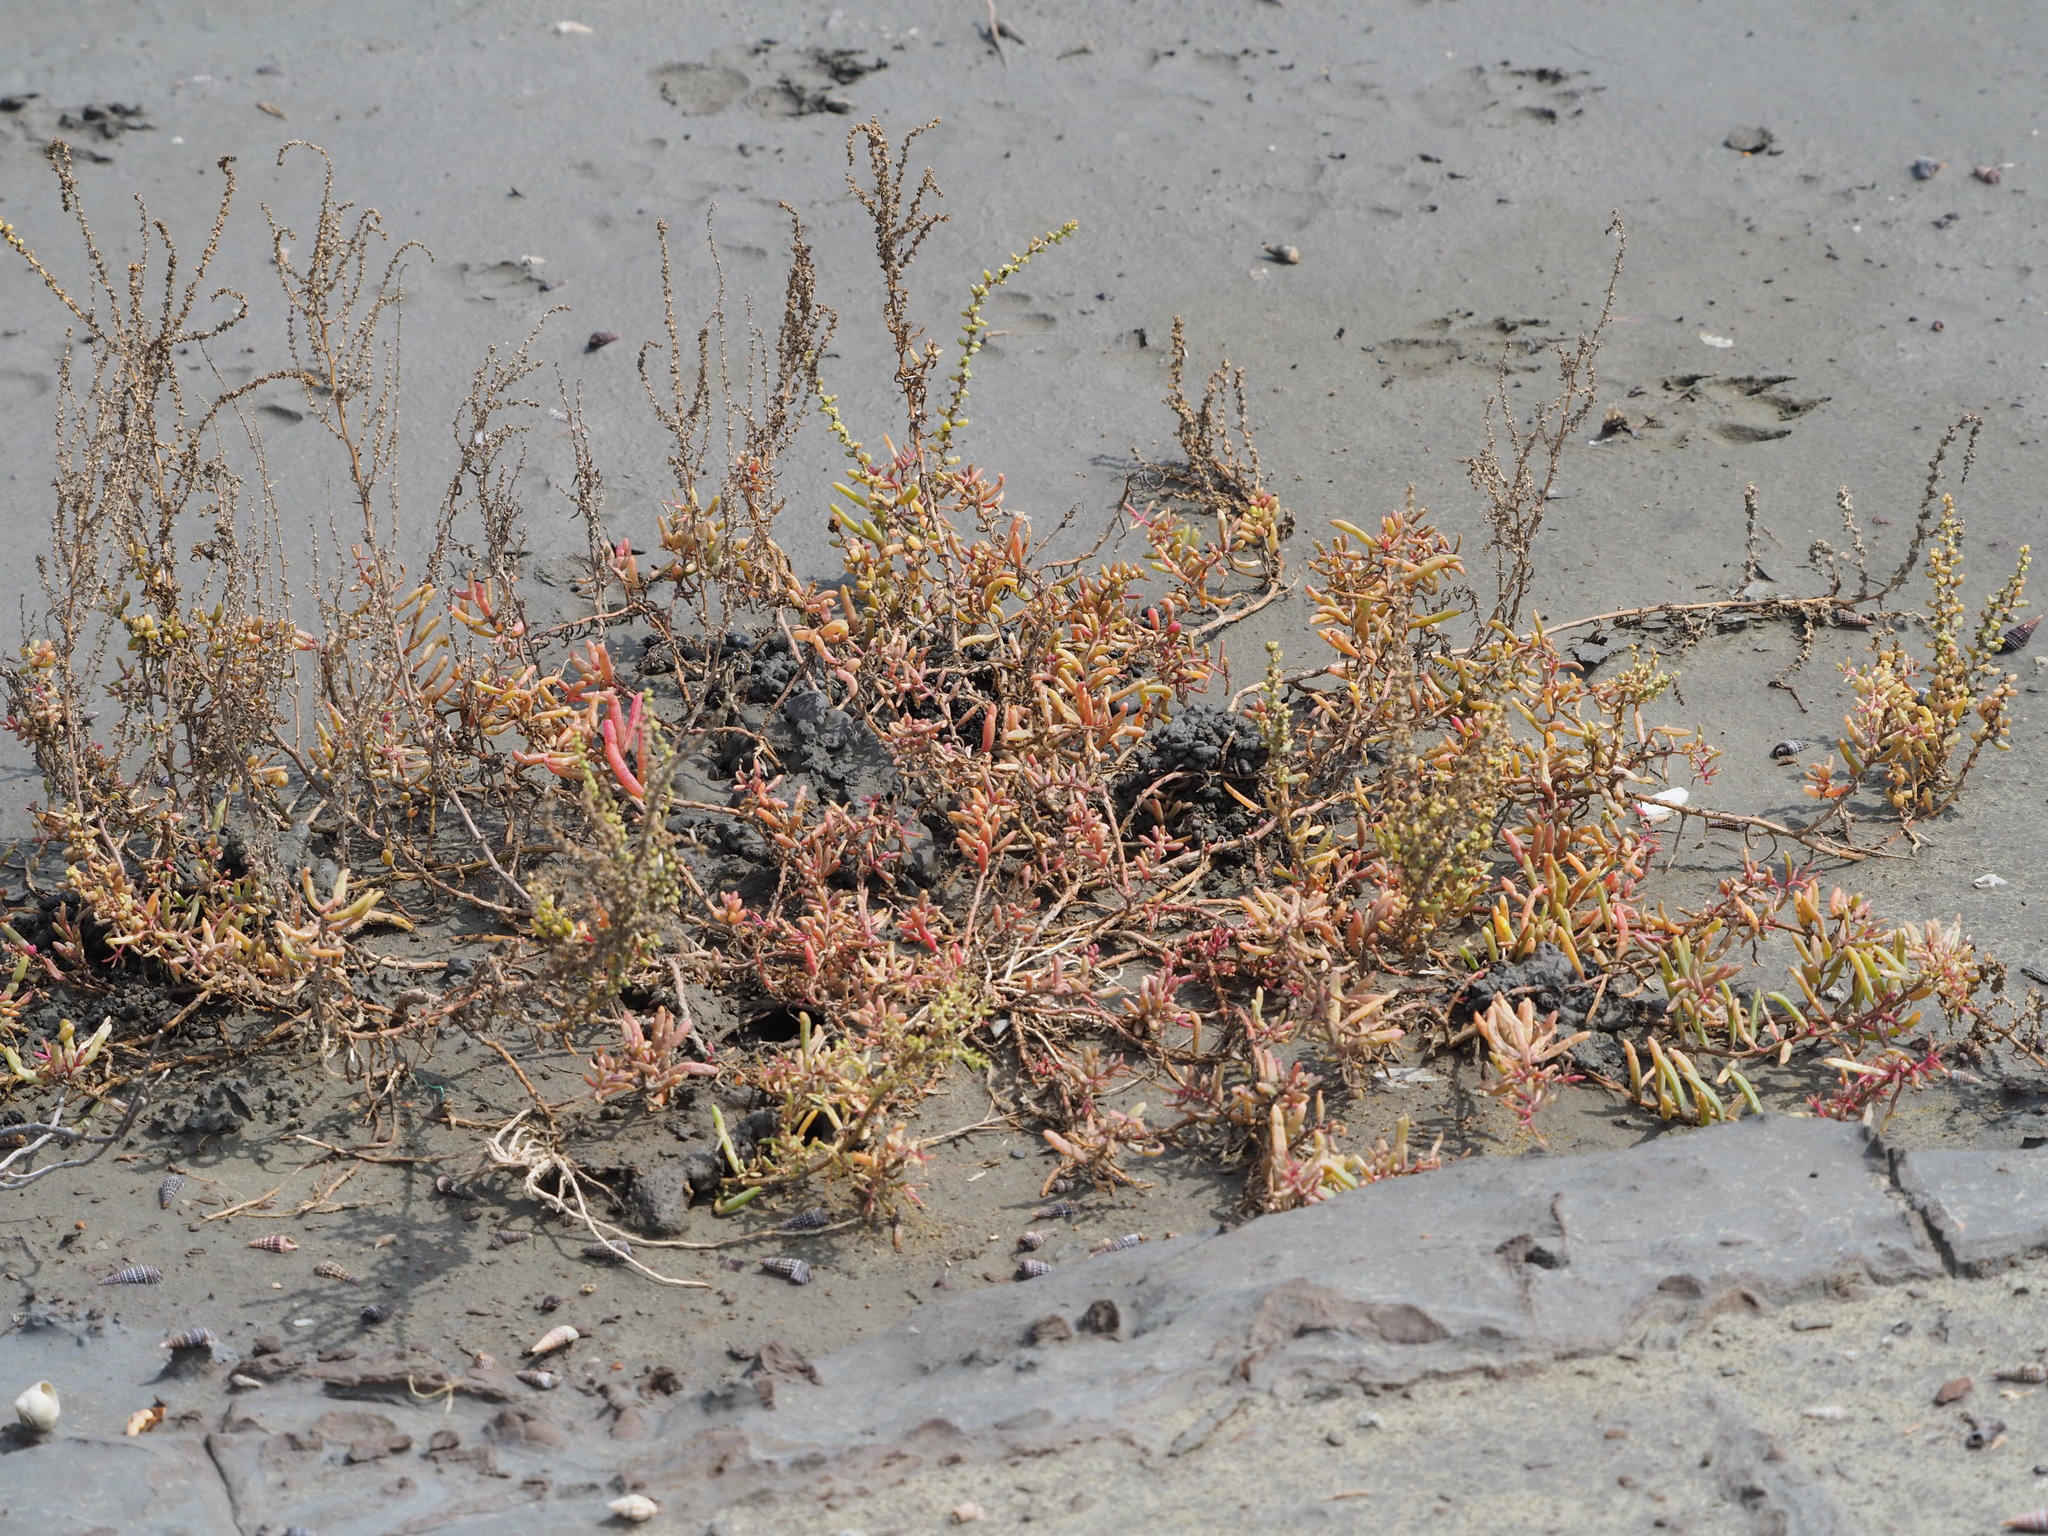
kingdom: Plantae
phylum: Tracheophyta
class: Magnoliopsida
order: Caryophyllales
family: Amaranthaceae
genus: Suaeda
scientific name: Suaeda maritima
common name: Annual sea-blite
